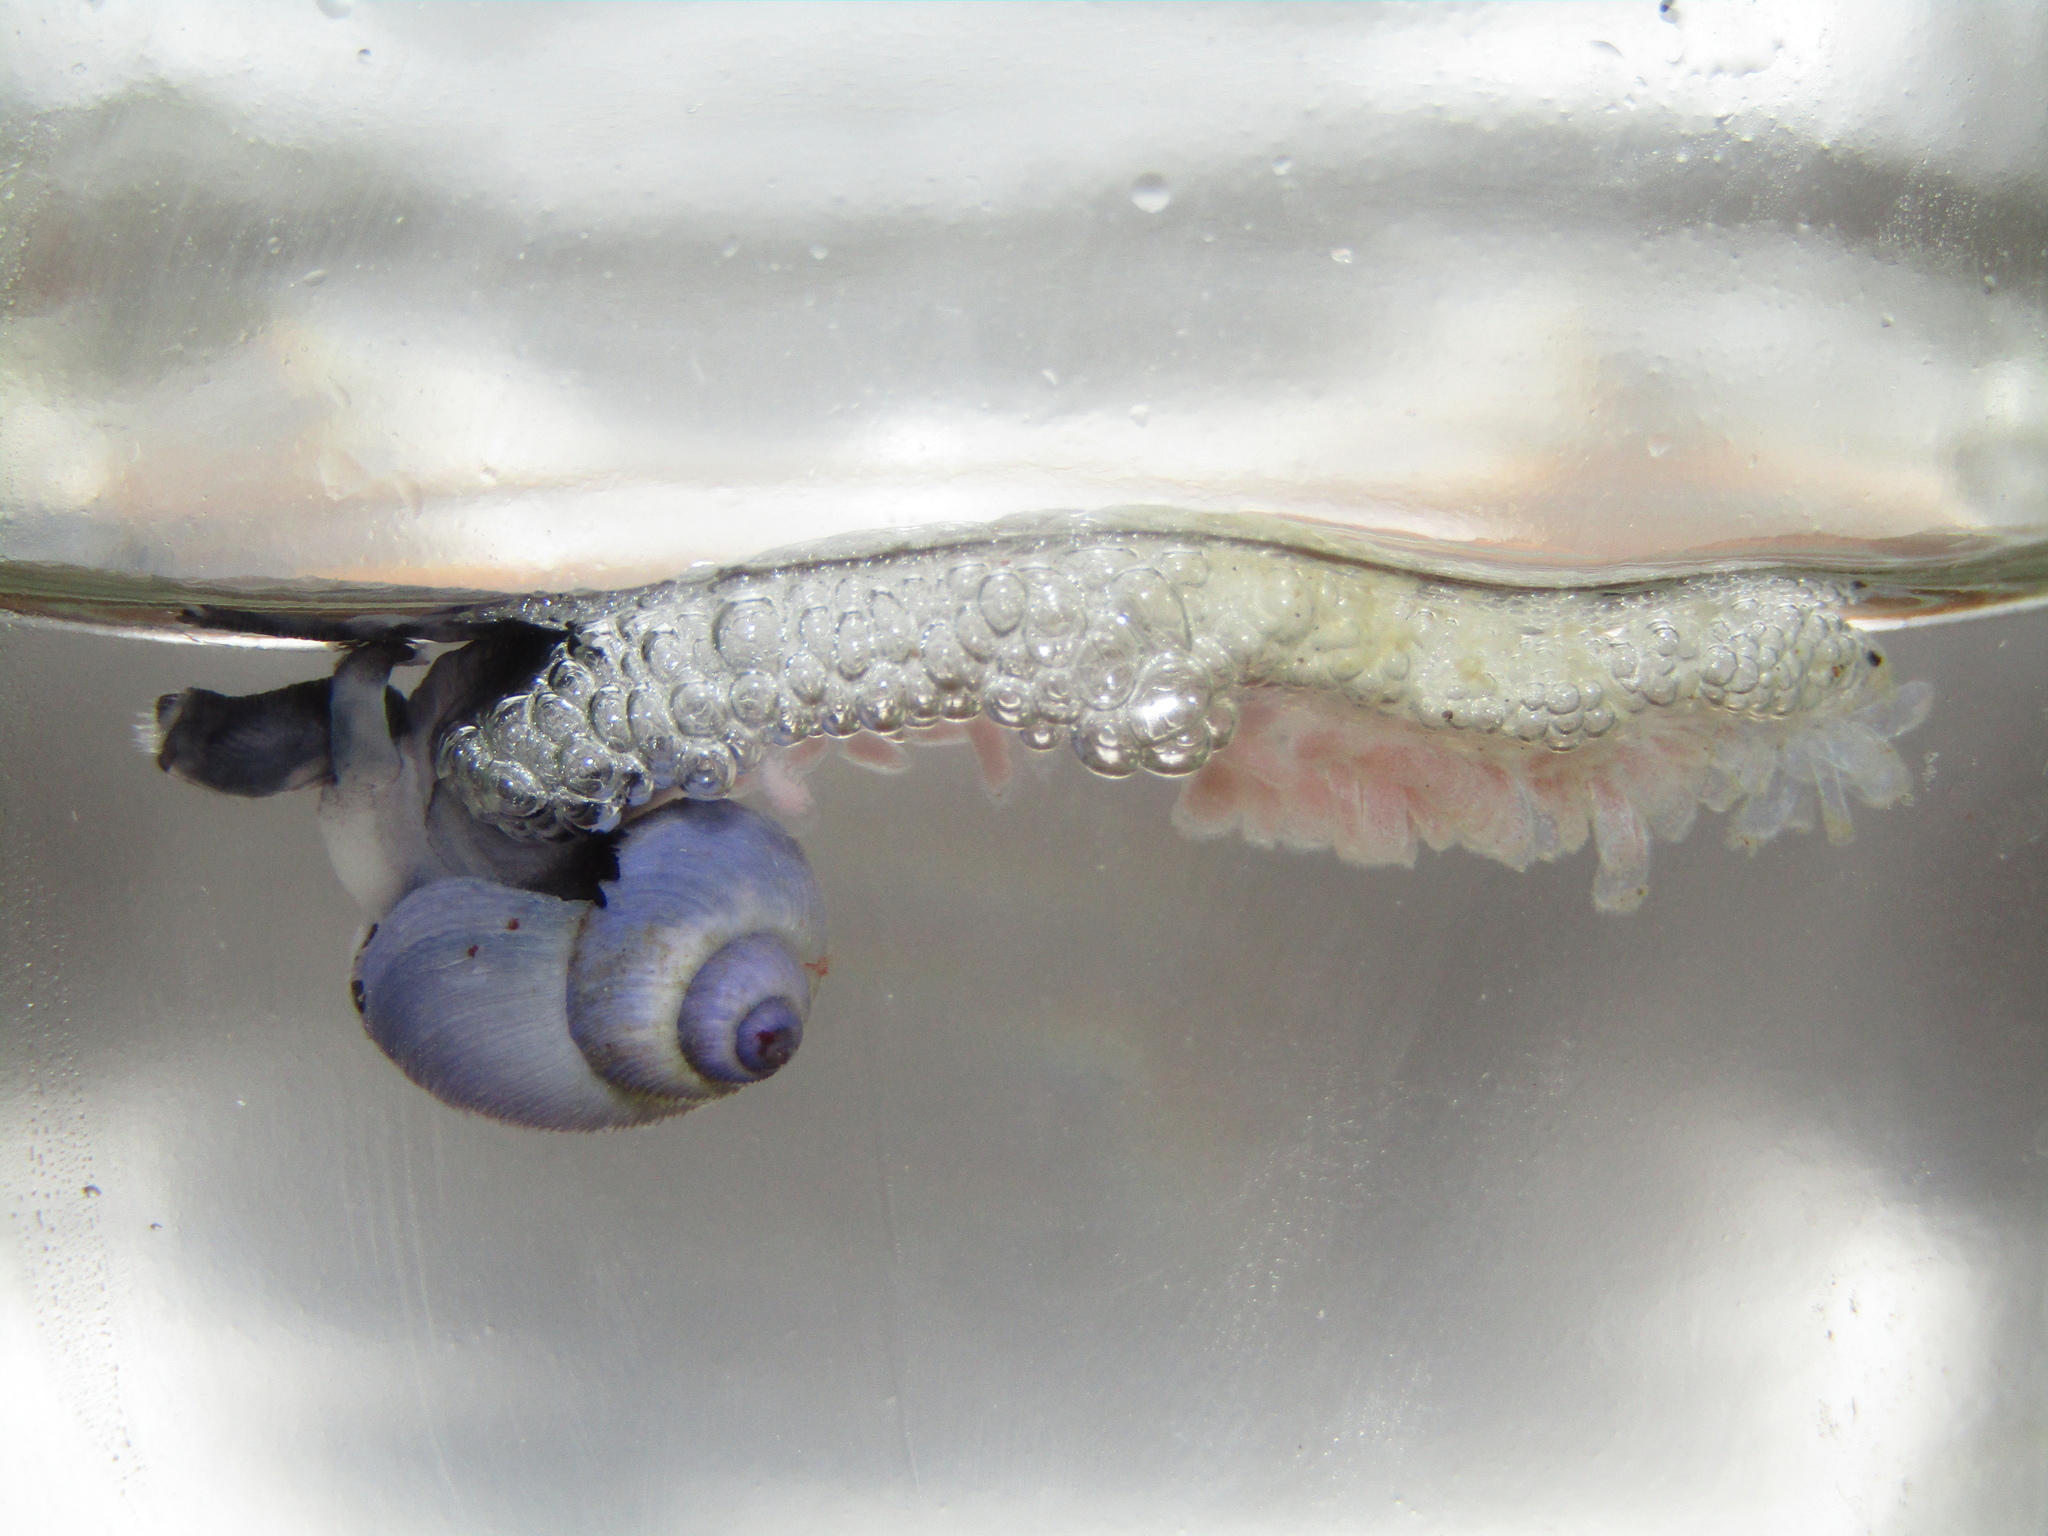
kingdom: Animalia
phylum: Mollusca
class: Gastropoda
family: Epitoniidae
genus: Janthina
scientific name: Janthina exigua
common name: Dwarf janthina
